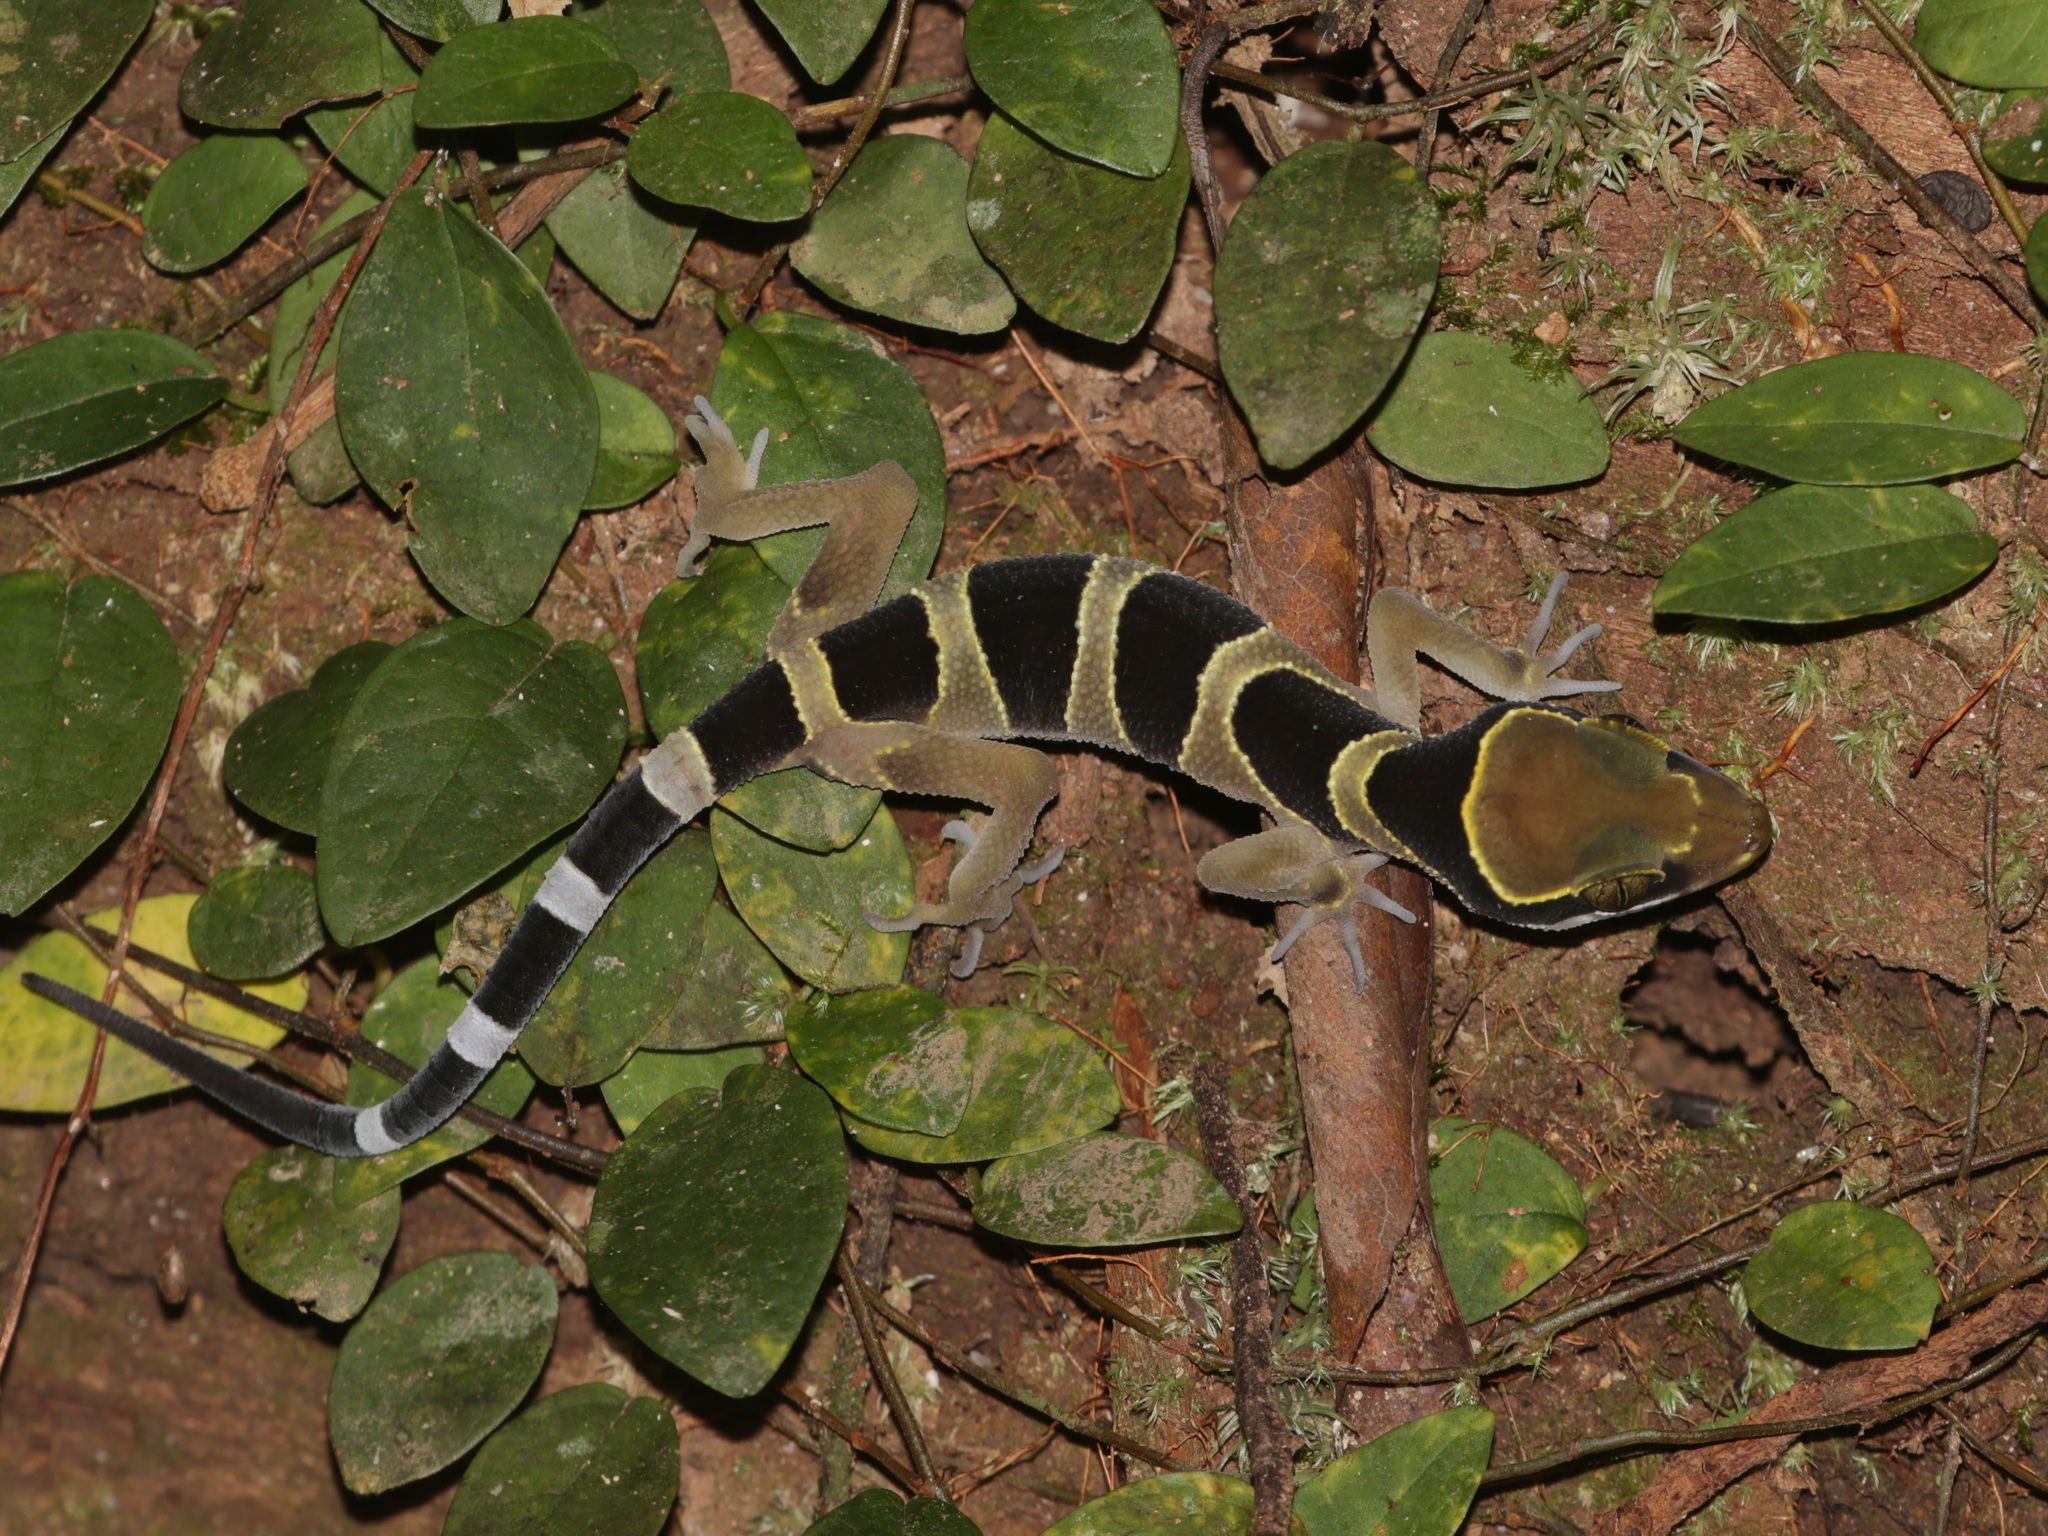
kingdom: Animalia
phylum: Chordata
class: Squamata
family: Gekkonidae
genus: Cyrtodactylus
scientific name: Cyrtodactylus bintangtinggi
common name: Bintang mountain bent-toed gecko
